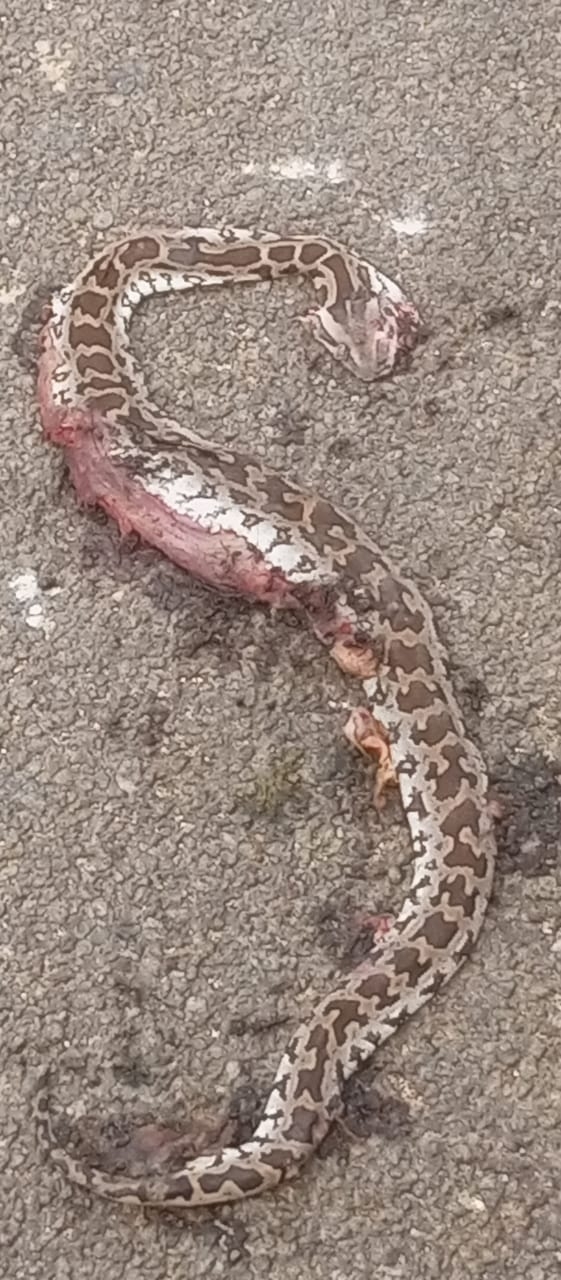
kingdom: Animalia
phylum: Chordata
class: Squamata
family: Pythonidae
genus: Python
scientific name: Python molurus
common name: Indian rock python
